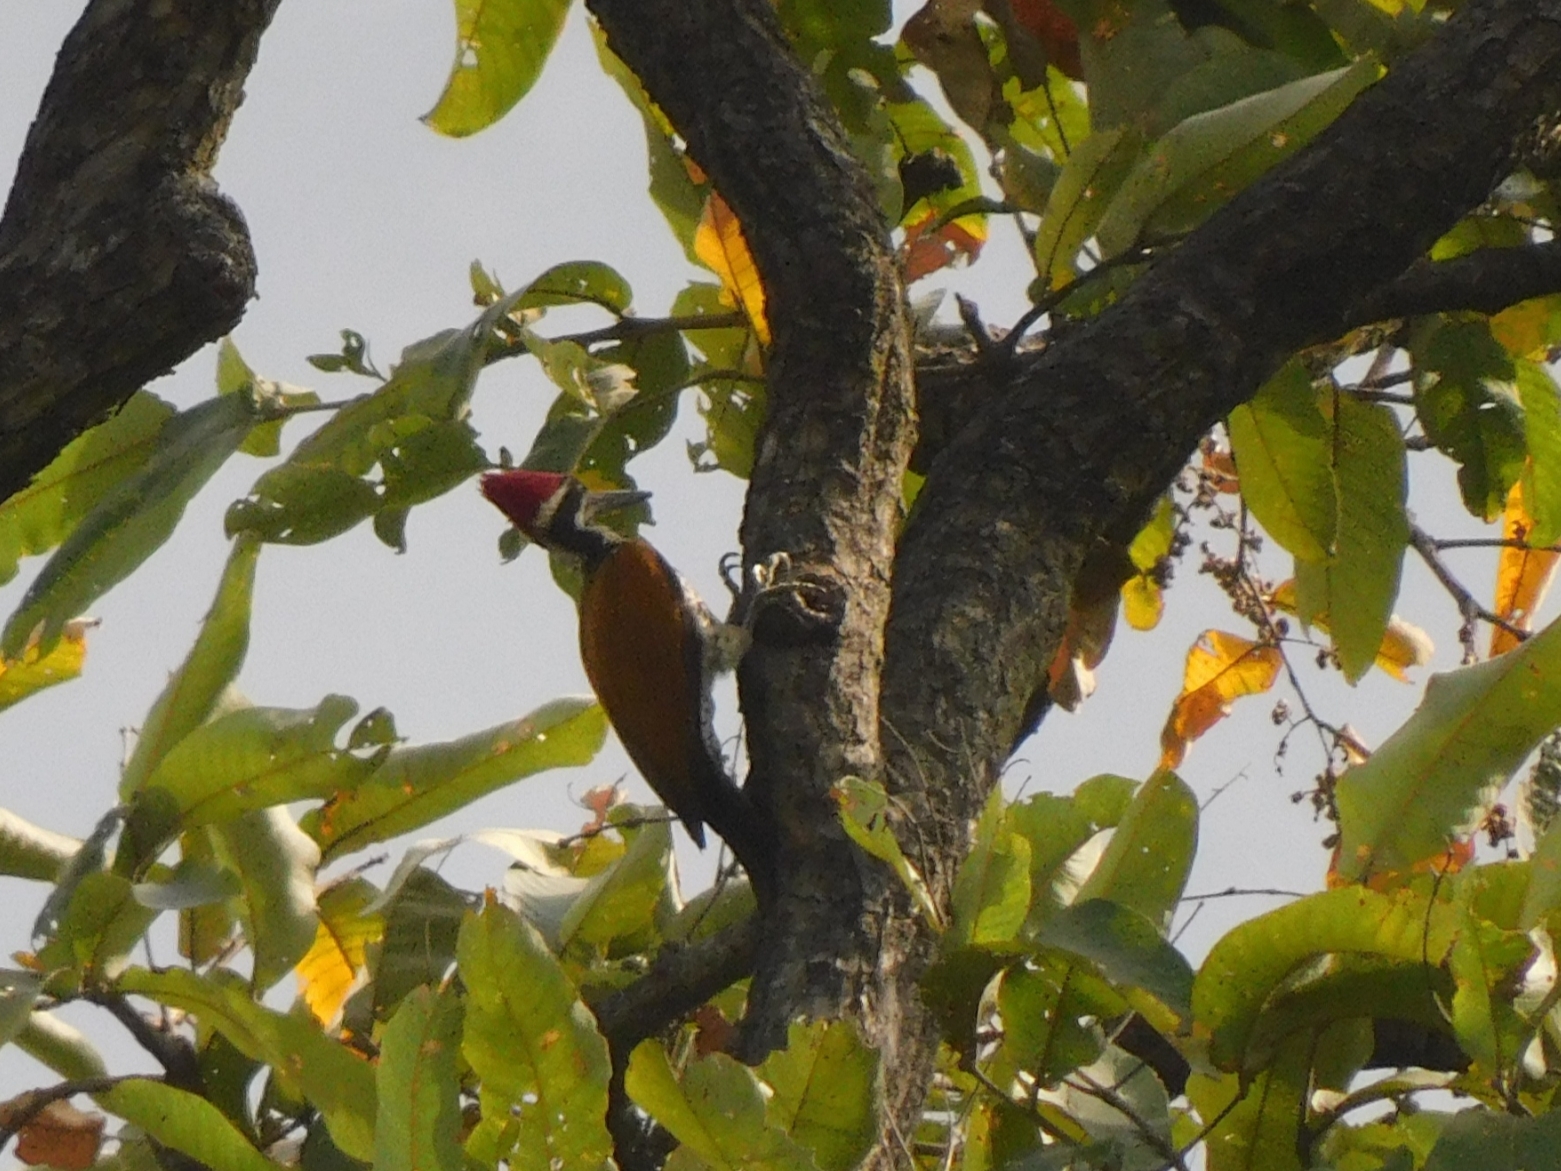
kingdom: Animalia
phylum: Chordata
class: Aves
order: Piciformes
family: Picidae
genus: Chrysocolaptes
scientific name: Chrysocolaptes guttacristatus
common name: Greater flameback
